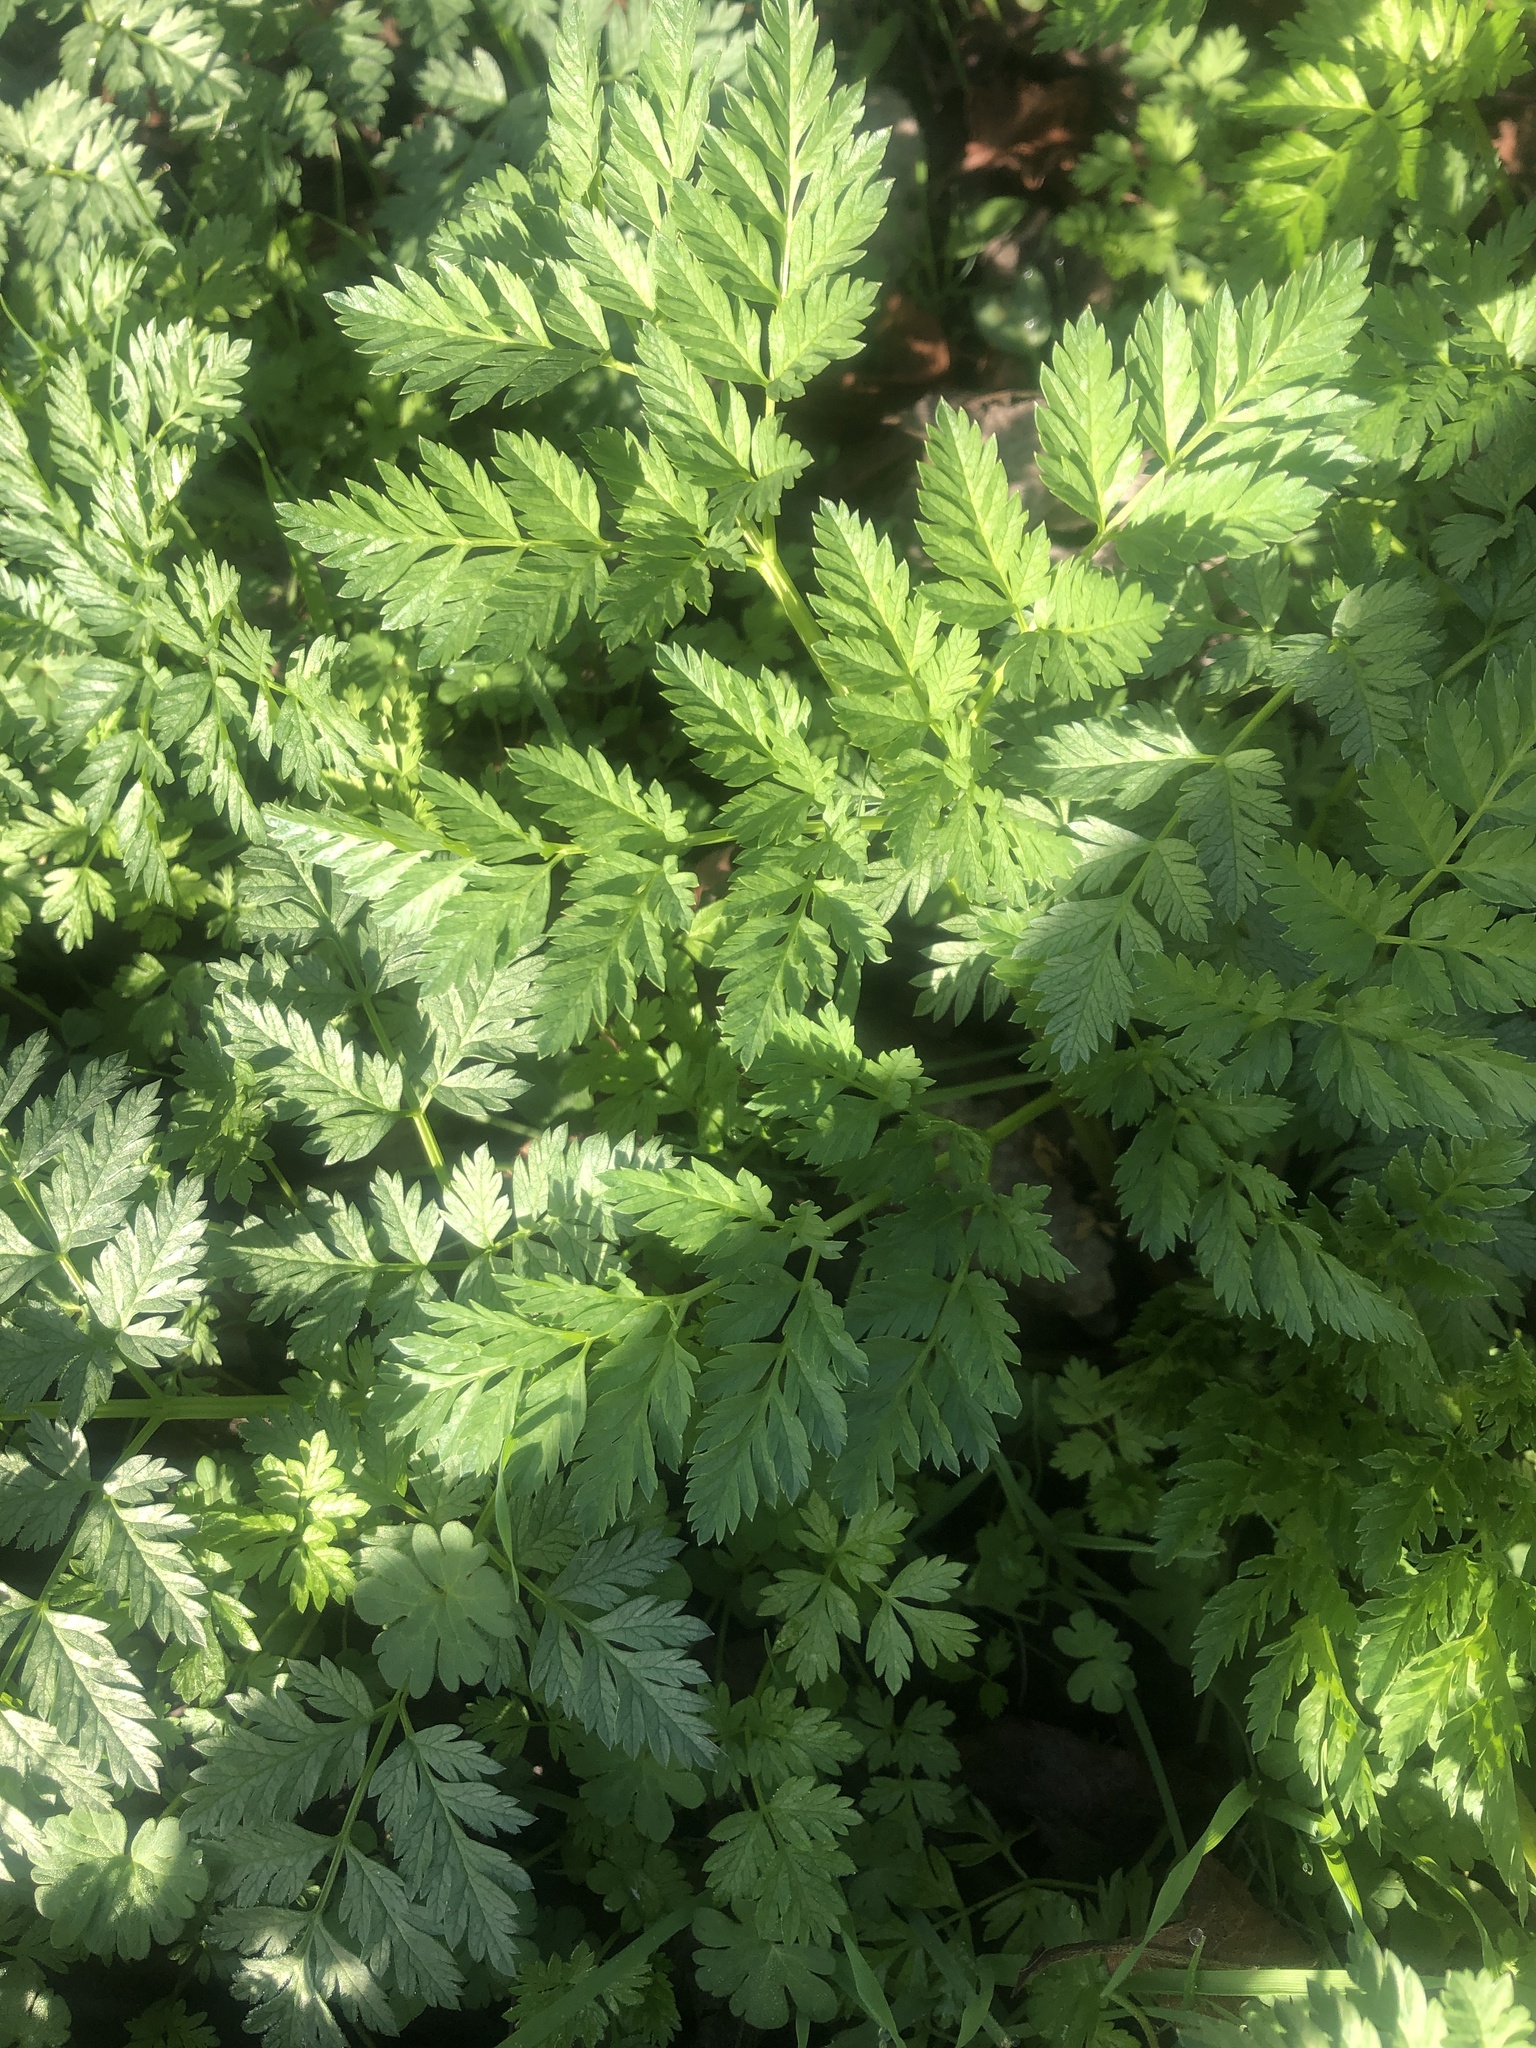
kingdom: Plantae
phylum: Tracheophyta
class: Magnoliopsida
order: Apiales
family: Apiaceae
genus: Conium
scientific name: Conium maculatum
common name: Hemlock
